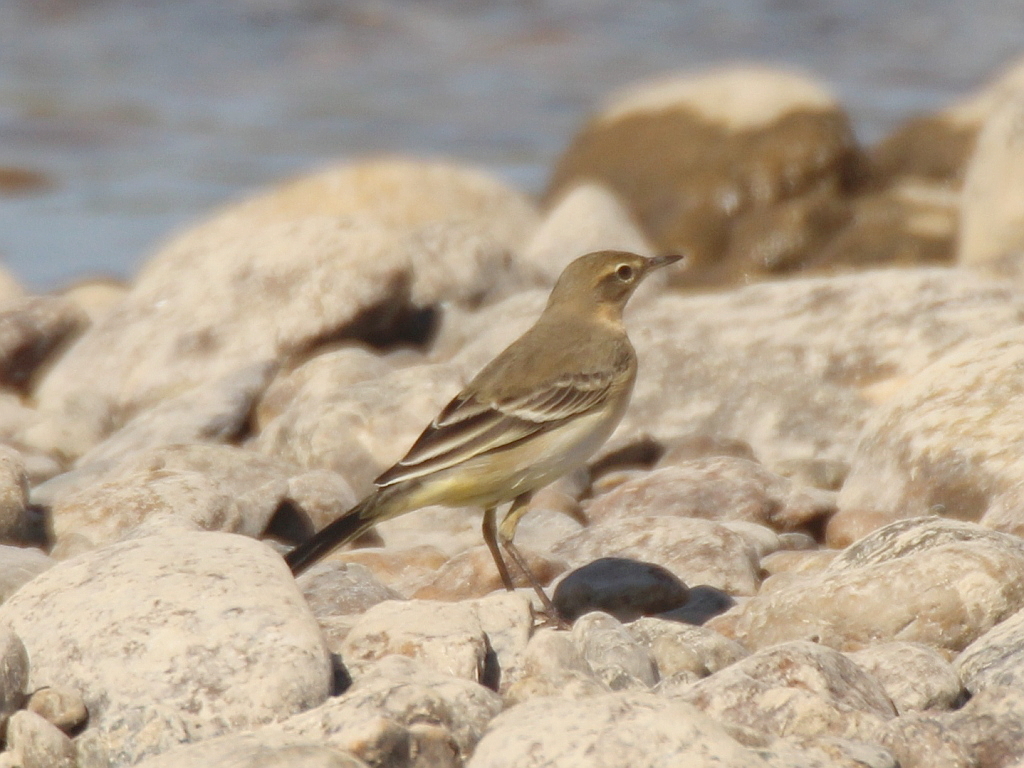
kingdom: Animalia
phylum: Chordata
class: Aves
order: Passeriformes
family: Motacillidae
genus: Motacilla
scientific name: Motacilla tschutschensis
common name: Eastern yellow wagtail
